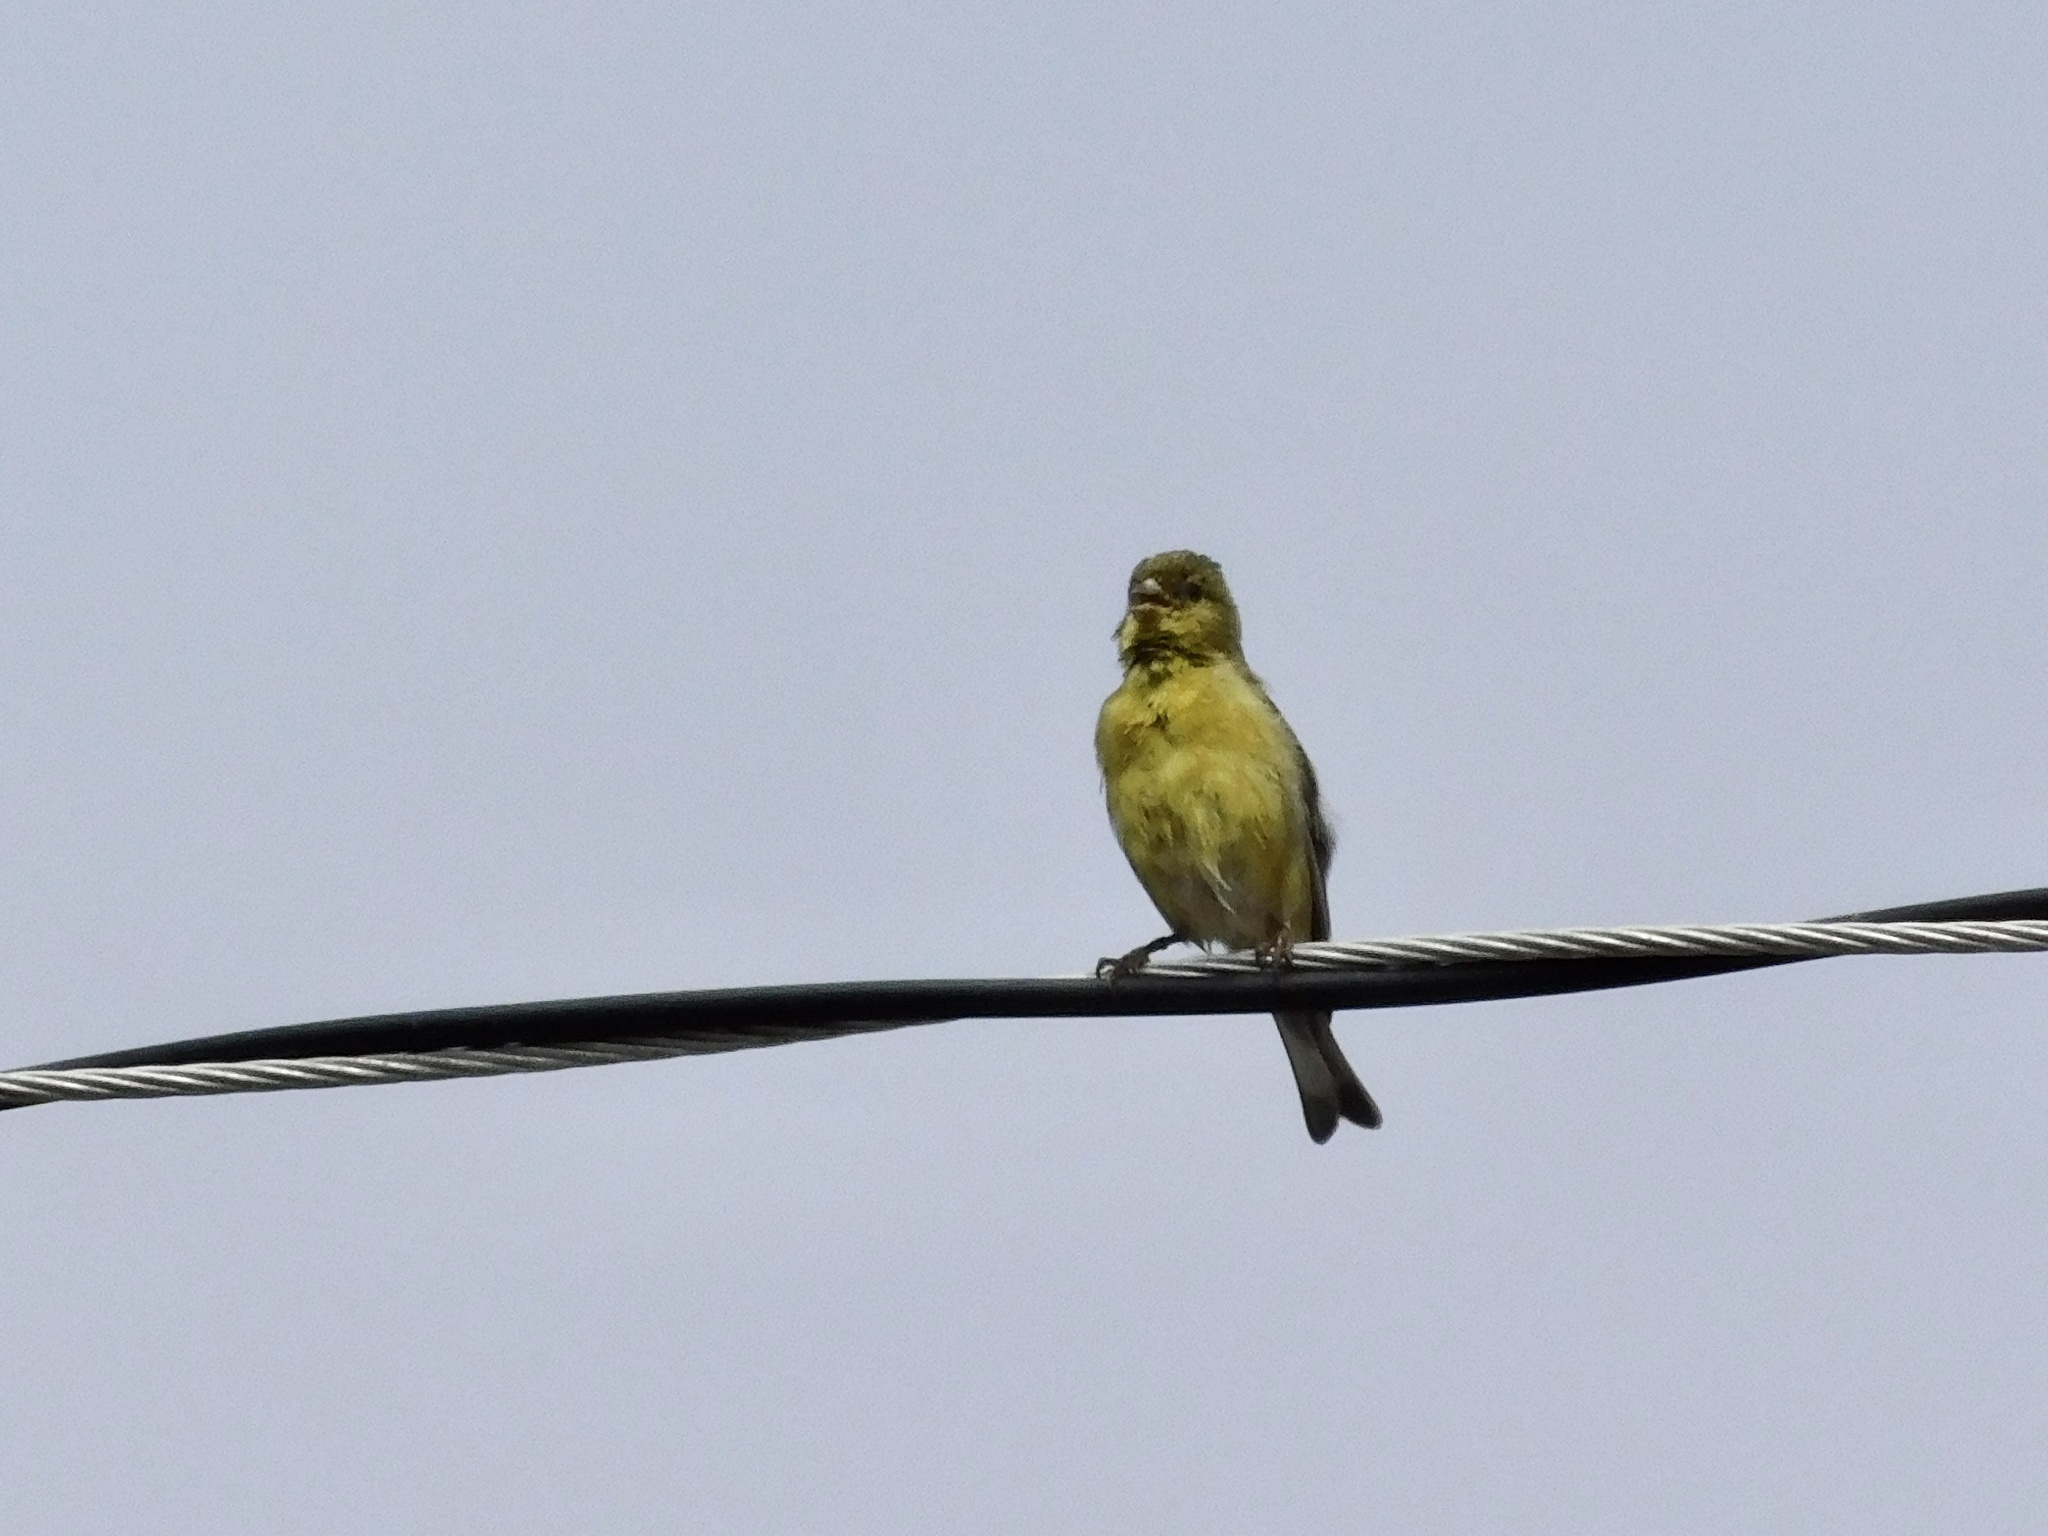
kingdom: Animalia
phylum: Chordata
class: Aves
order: Passeriformes
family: Fringillidae
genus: Spinus
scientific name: Spinus psaltria
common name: Lesser goldfinch
